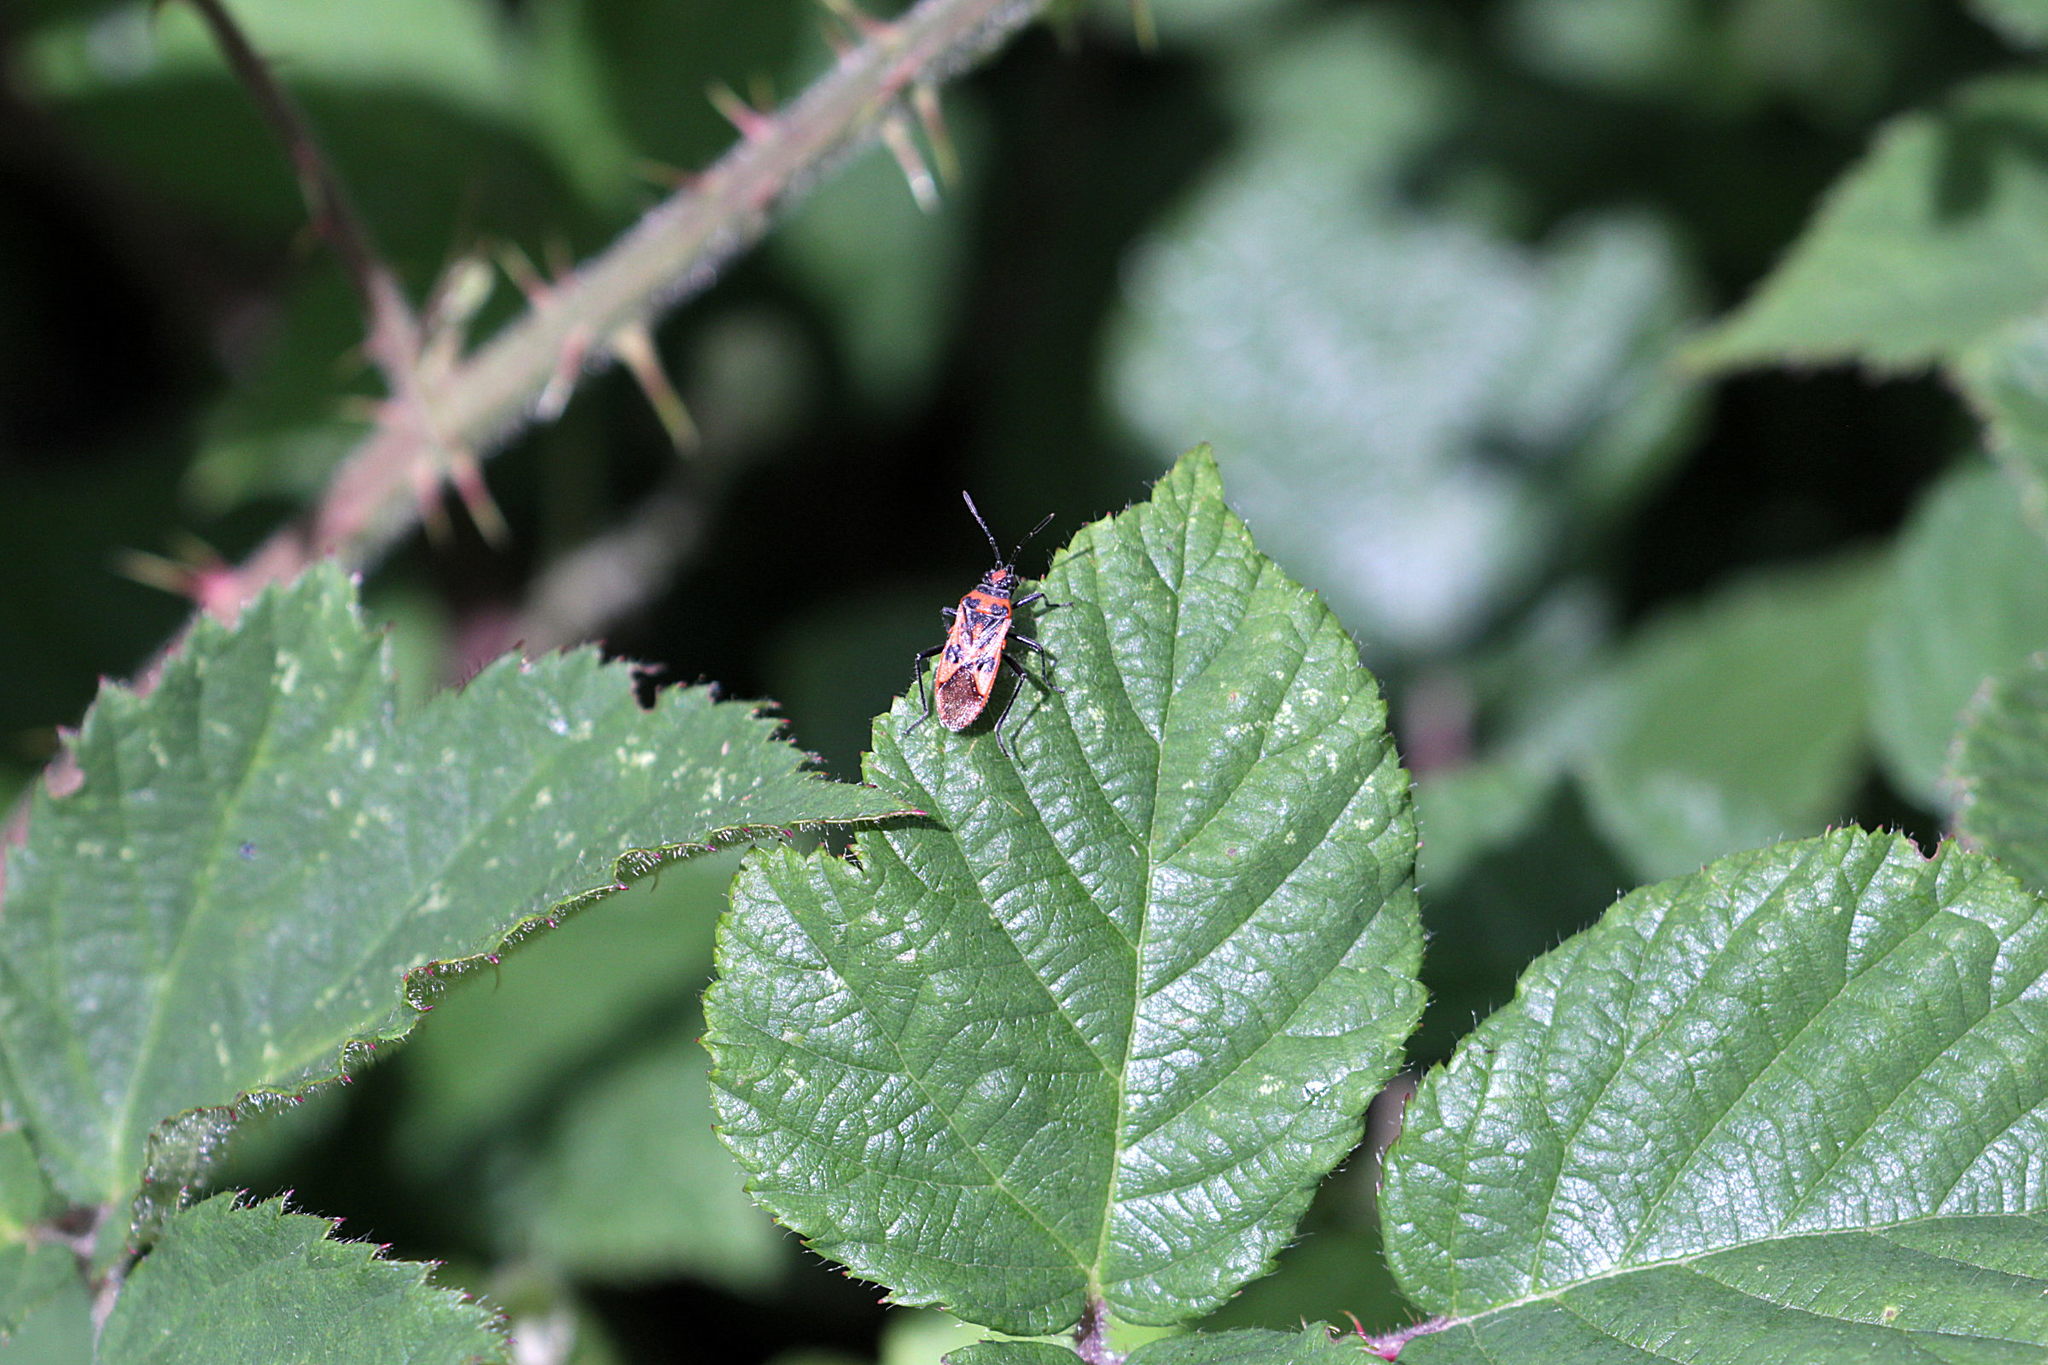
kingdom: Animalia
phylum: Arthropoda
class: Insecta
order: Hemiptera
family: Rhopalidae
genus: Corizus
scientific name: Corizus hyoscyami
